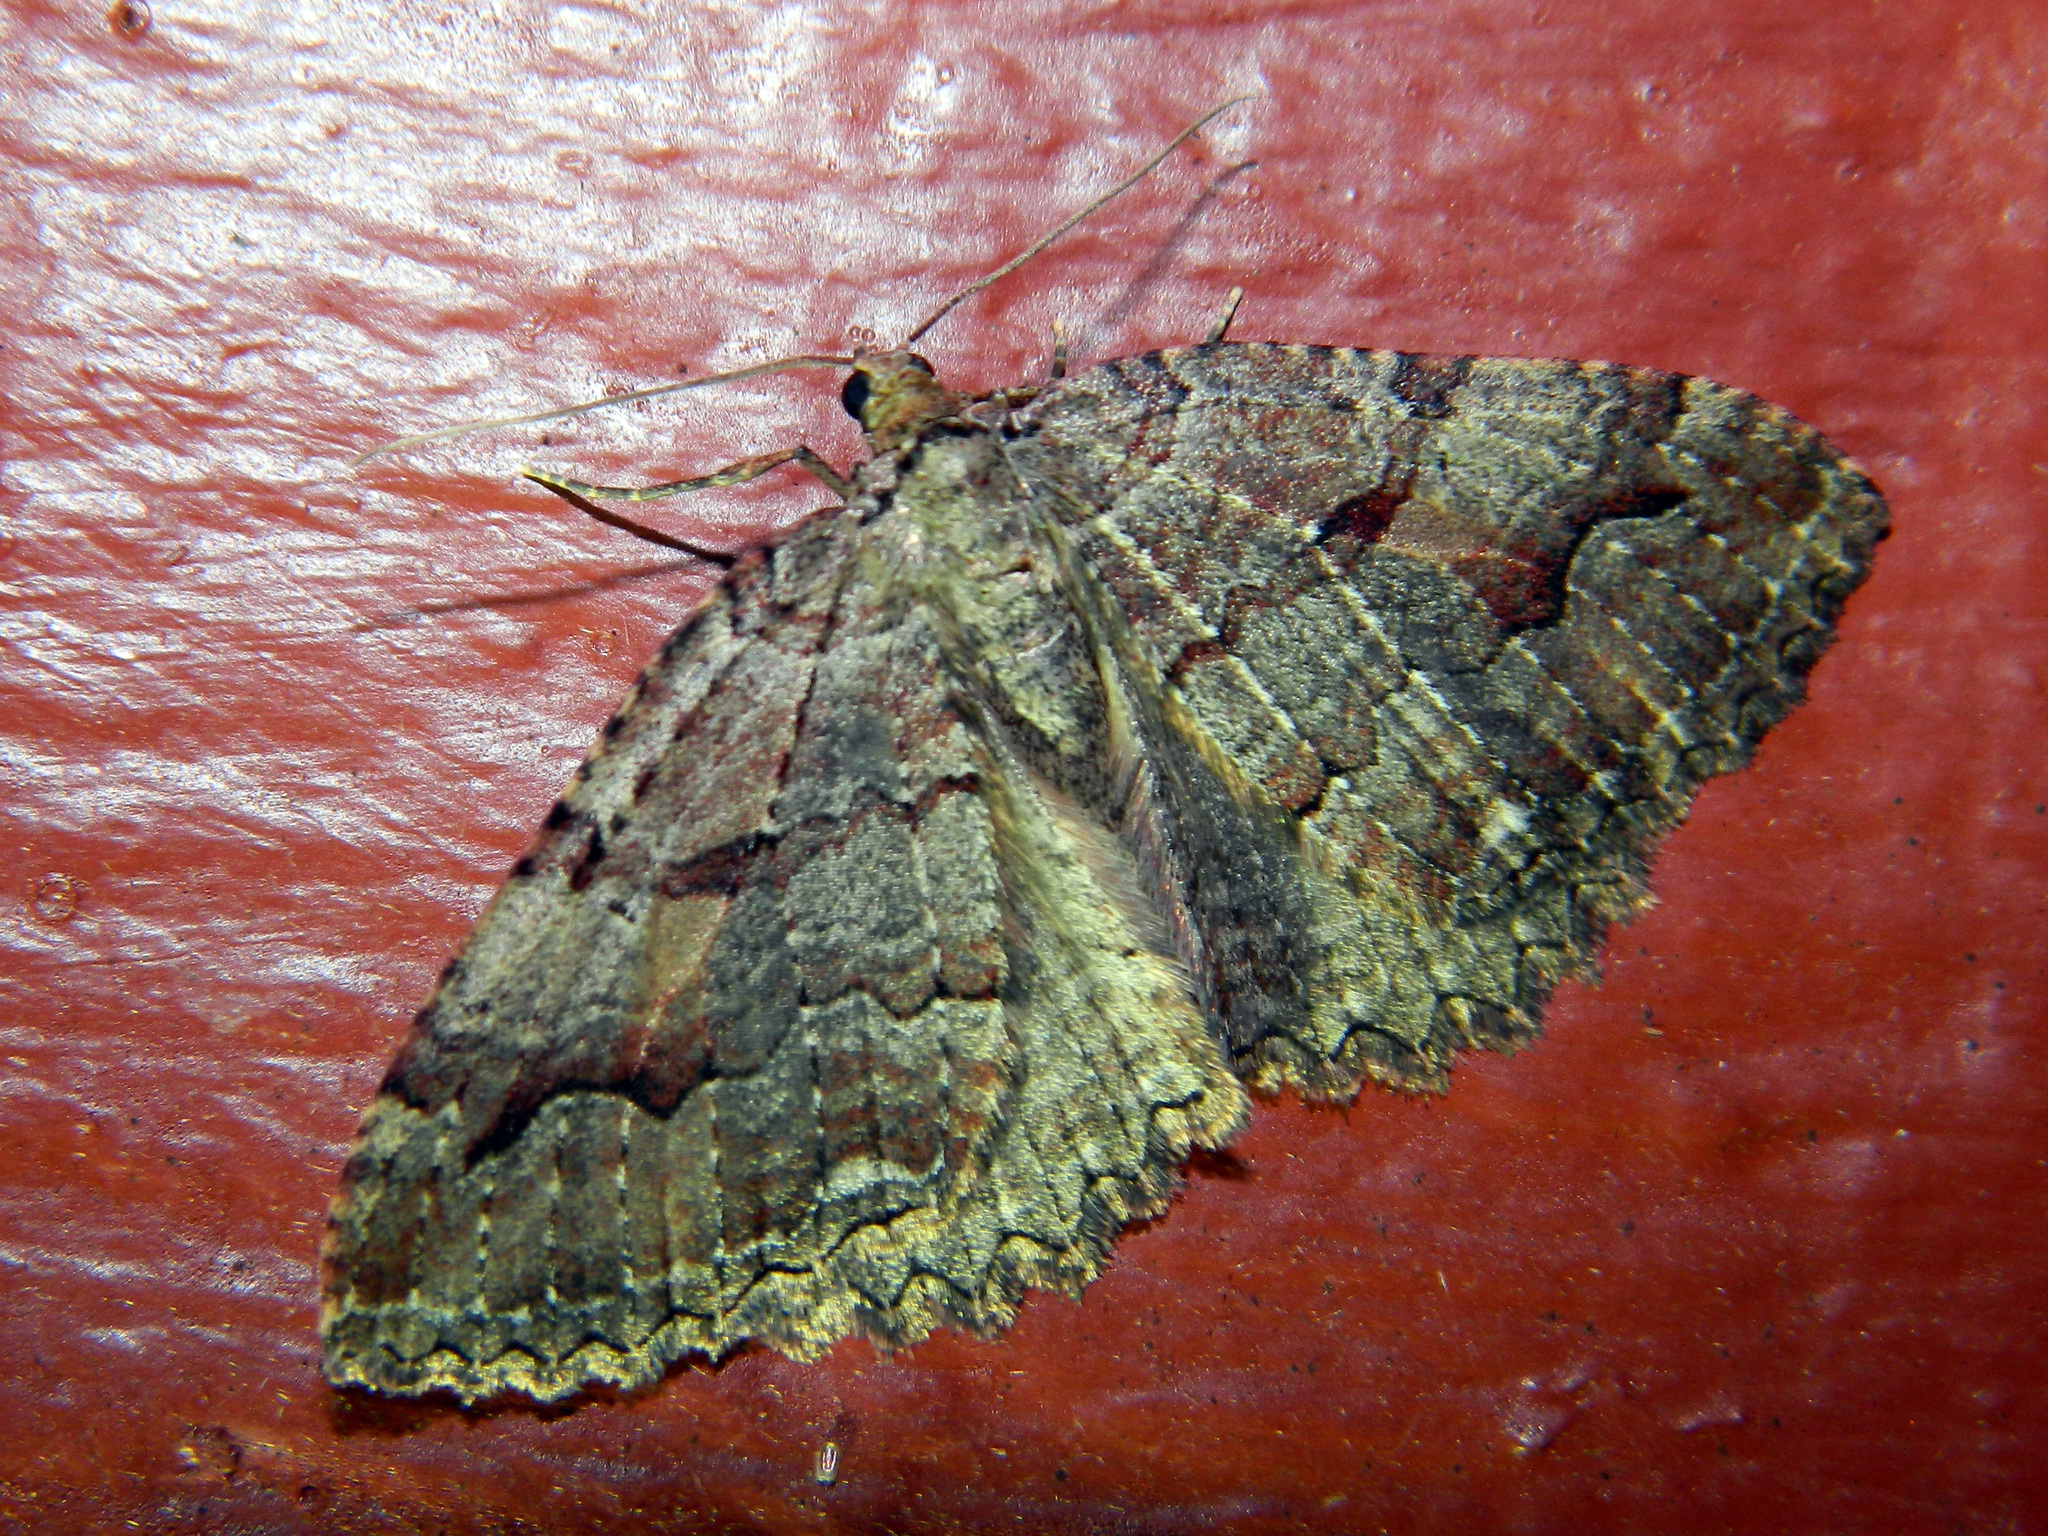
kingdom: Animalia
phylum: Arthropoda
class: Insecta
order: Lepidoptera
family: Geometridae
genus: Triphosa
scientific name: Triphosa haesitata
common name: Tissue moth
